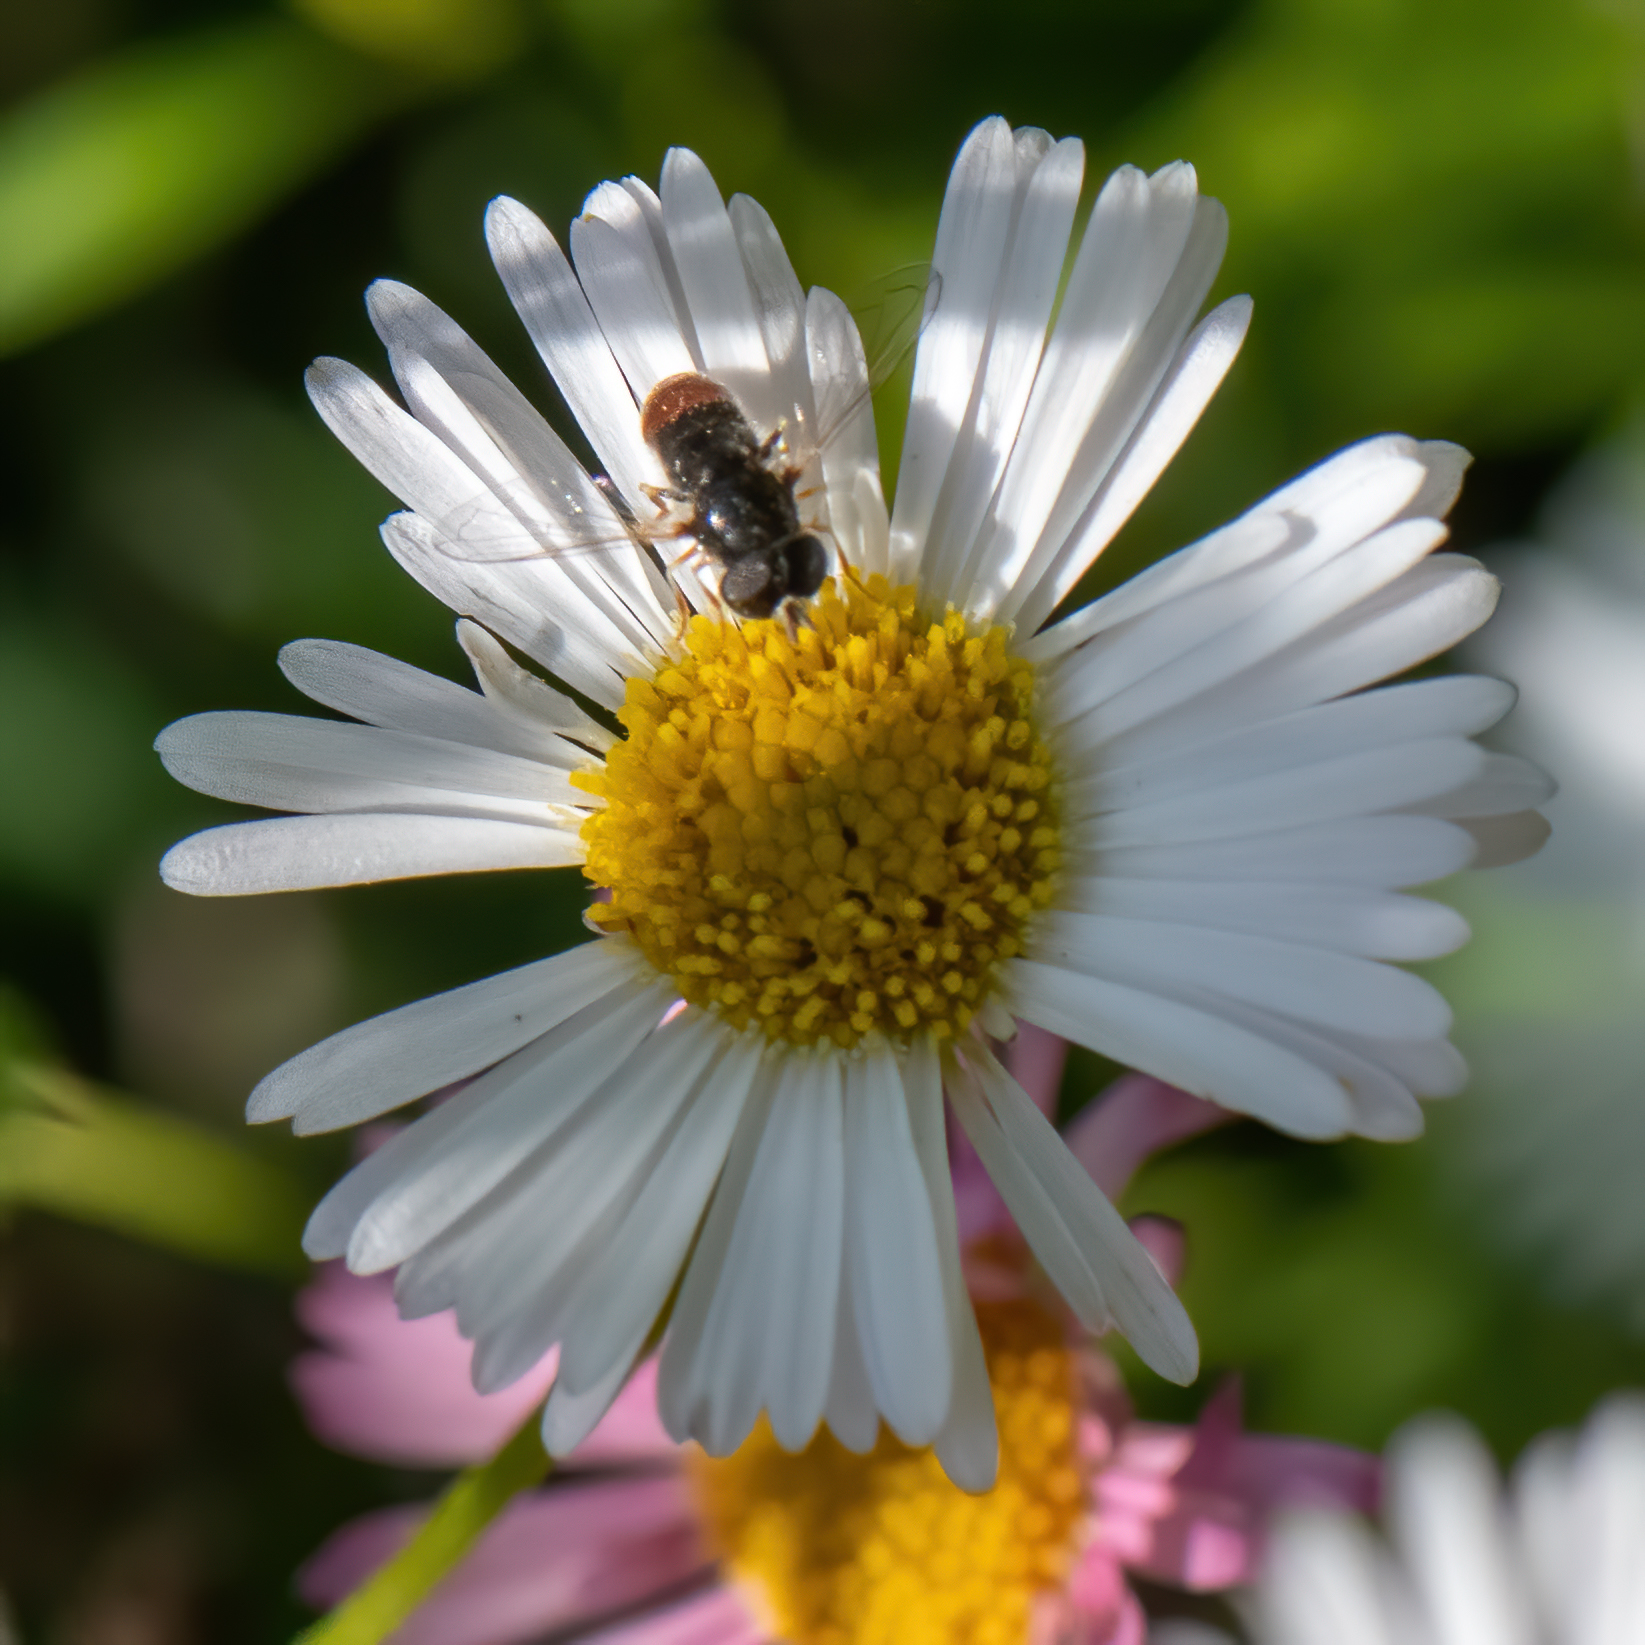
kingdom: Animalia
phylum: Arthropoda
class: Insecta
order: Diptera
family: Syrphidae
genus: Paragus
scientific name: Paragus haemorrhous
